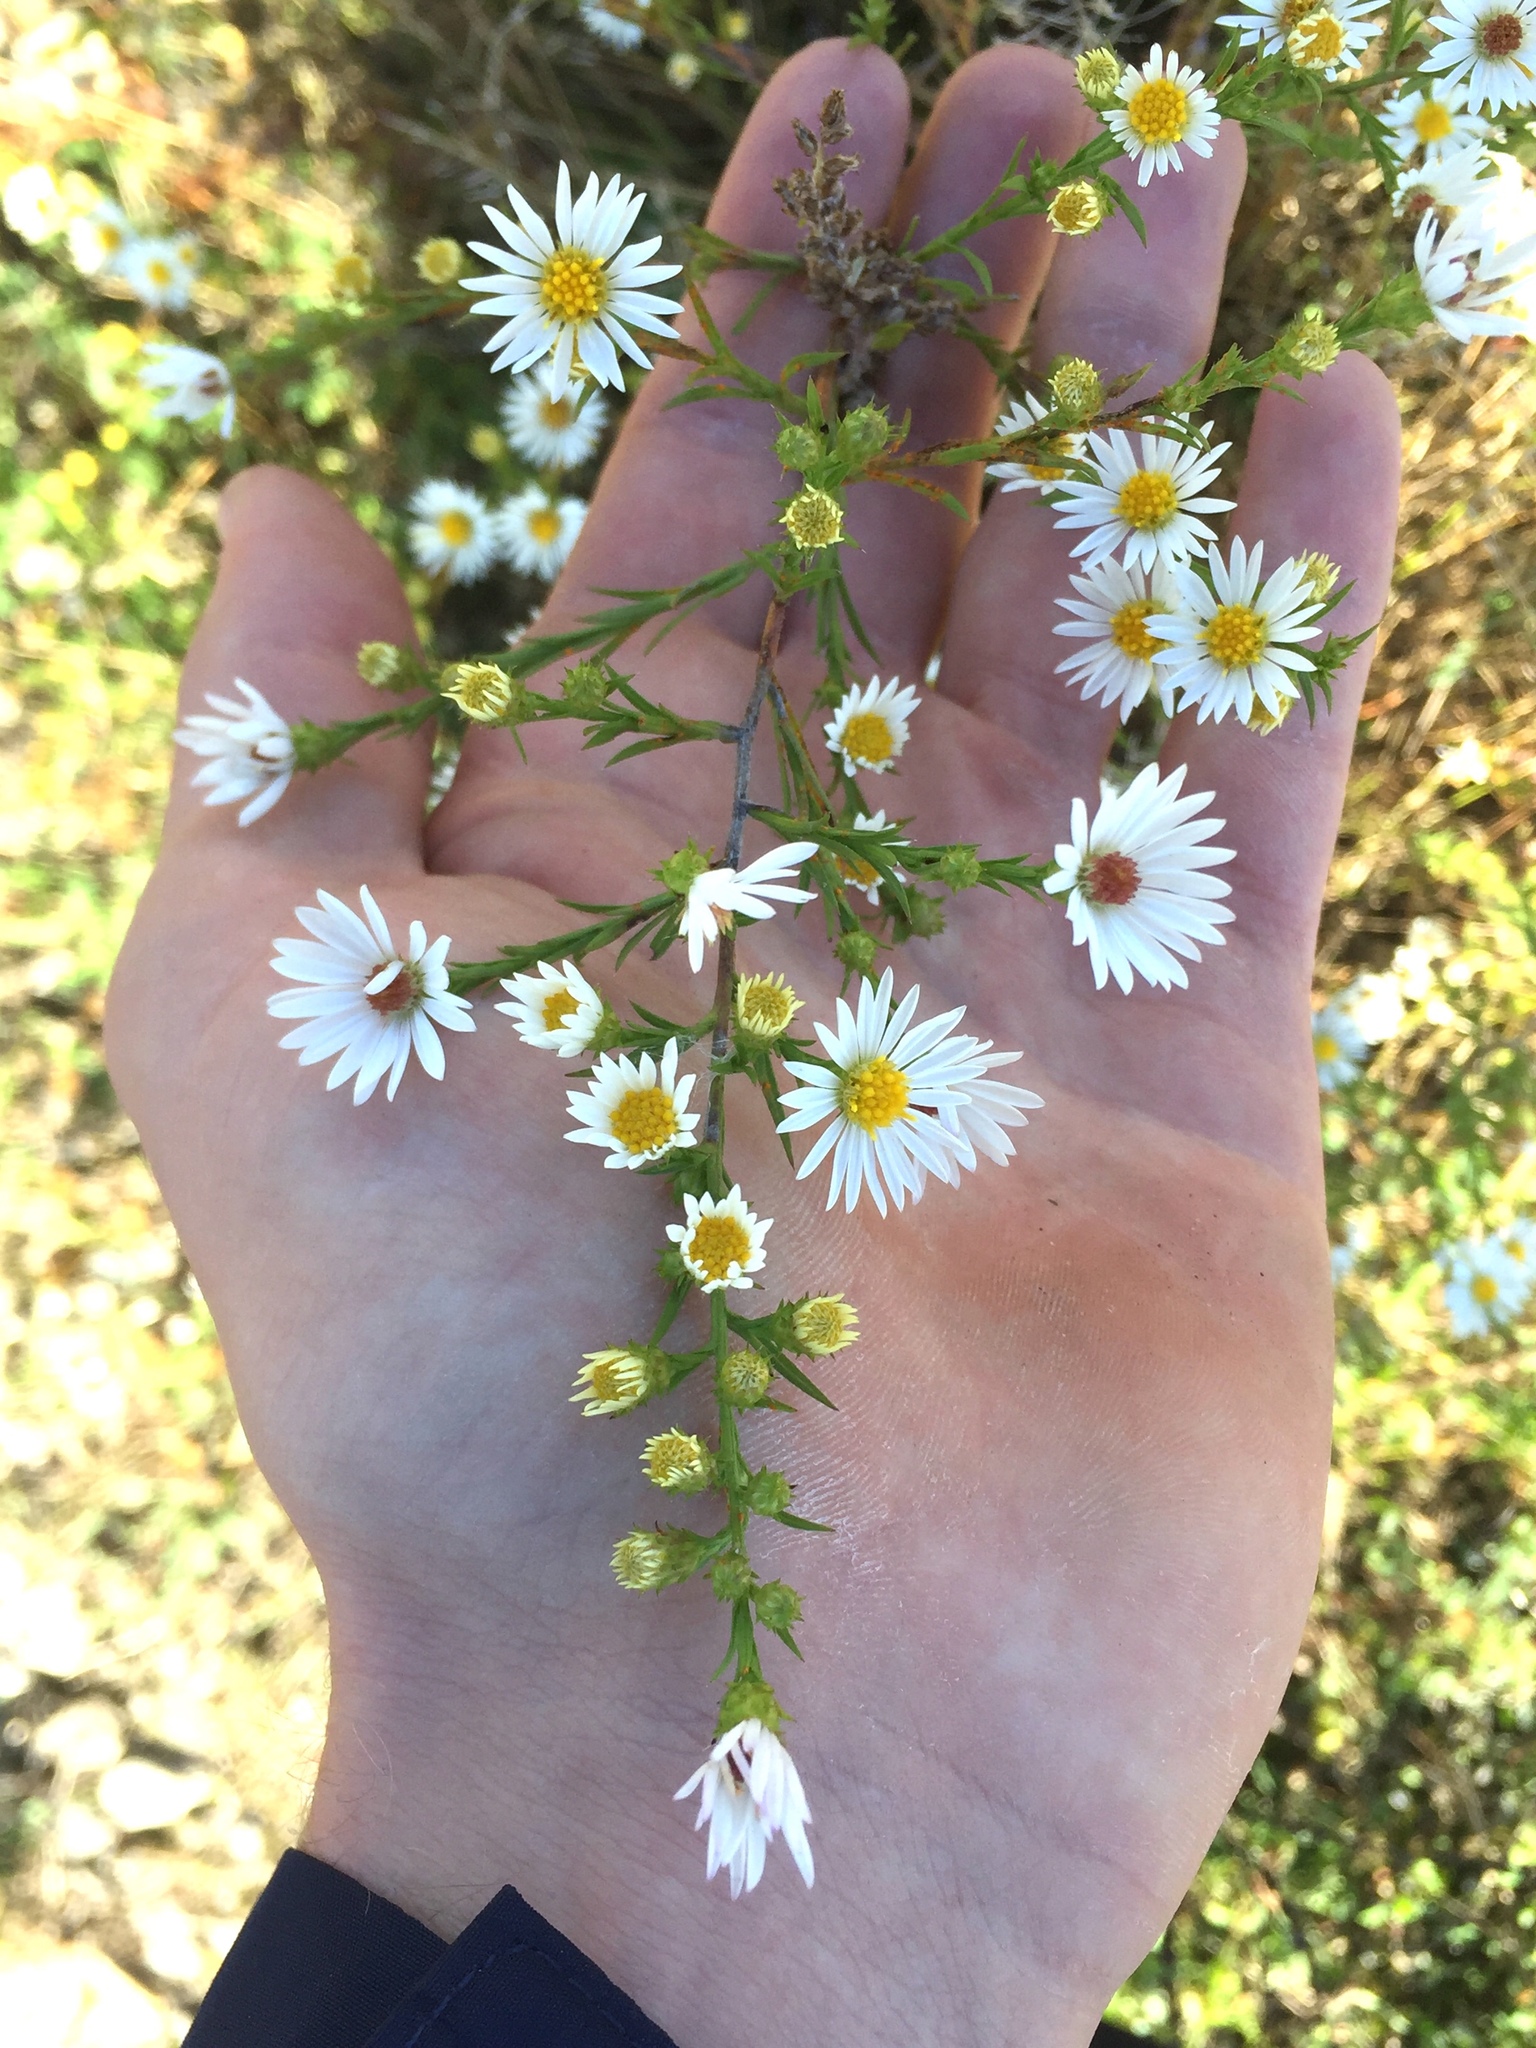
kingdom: Plantae
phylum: Tracheophyta
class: Magnoliopsida
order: Asterales
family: Asteraceae
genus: Symphyotrichum
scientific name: Symphyotrichum pilosum
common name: Awl aster
